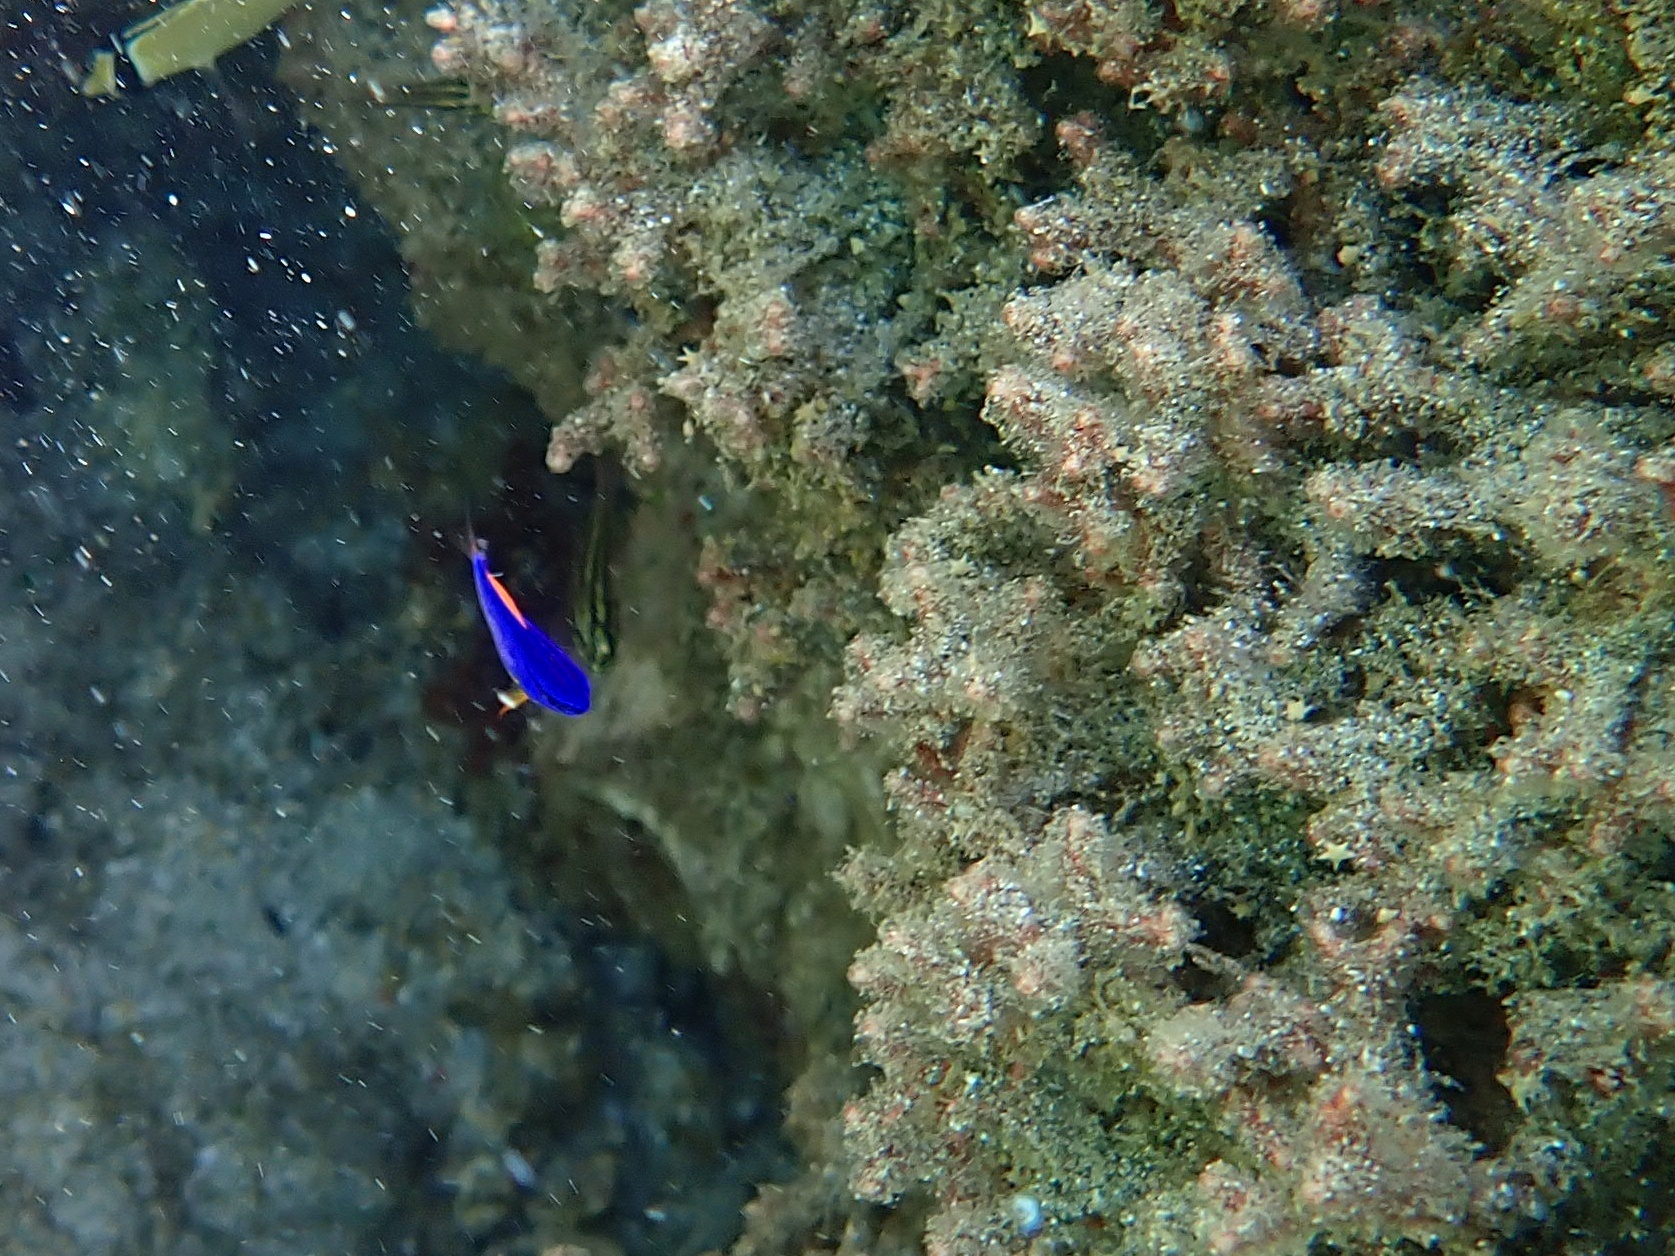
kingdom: Animalia
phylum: Chordata
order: Perciformes
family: Pomacentridae
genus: Chrysiptera
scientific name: Chrysiptera taupou
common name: Fiji damsel
